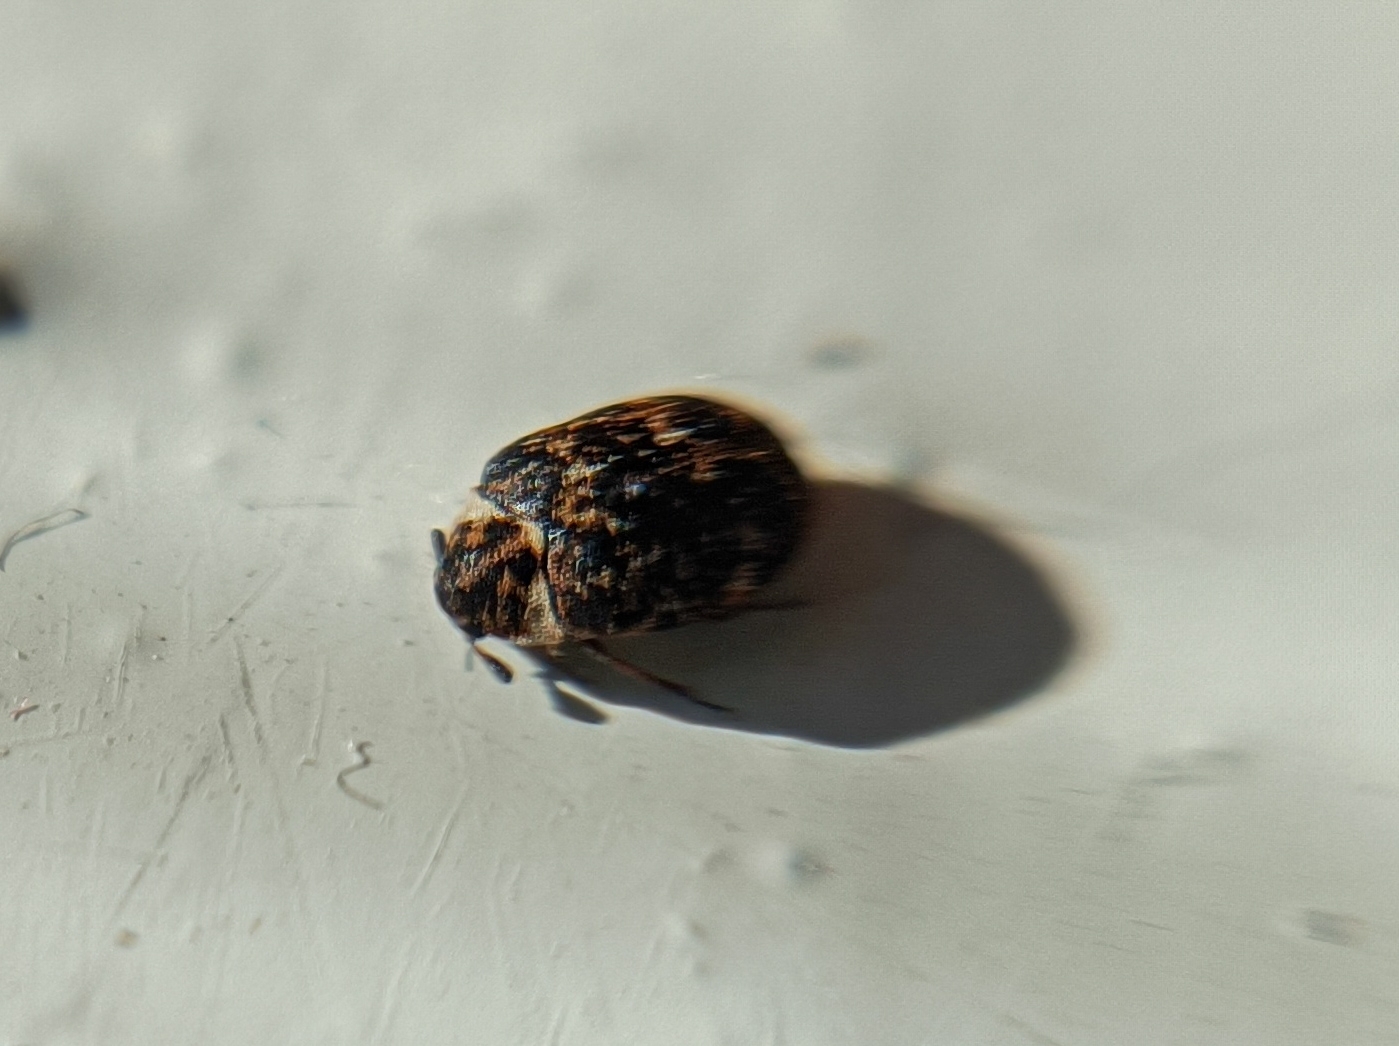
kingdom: Animalia
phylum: Arthropoda
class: Insecta
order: Coleoptera
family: Dermestidae
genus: Anthrenus
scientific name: Anthrenus museorum
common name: Museum beetle
